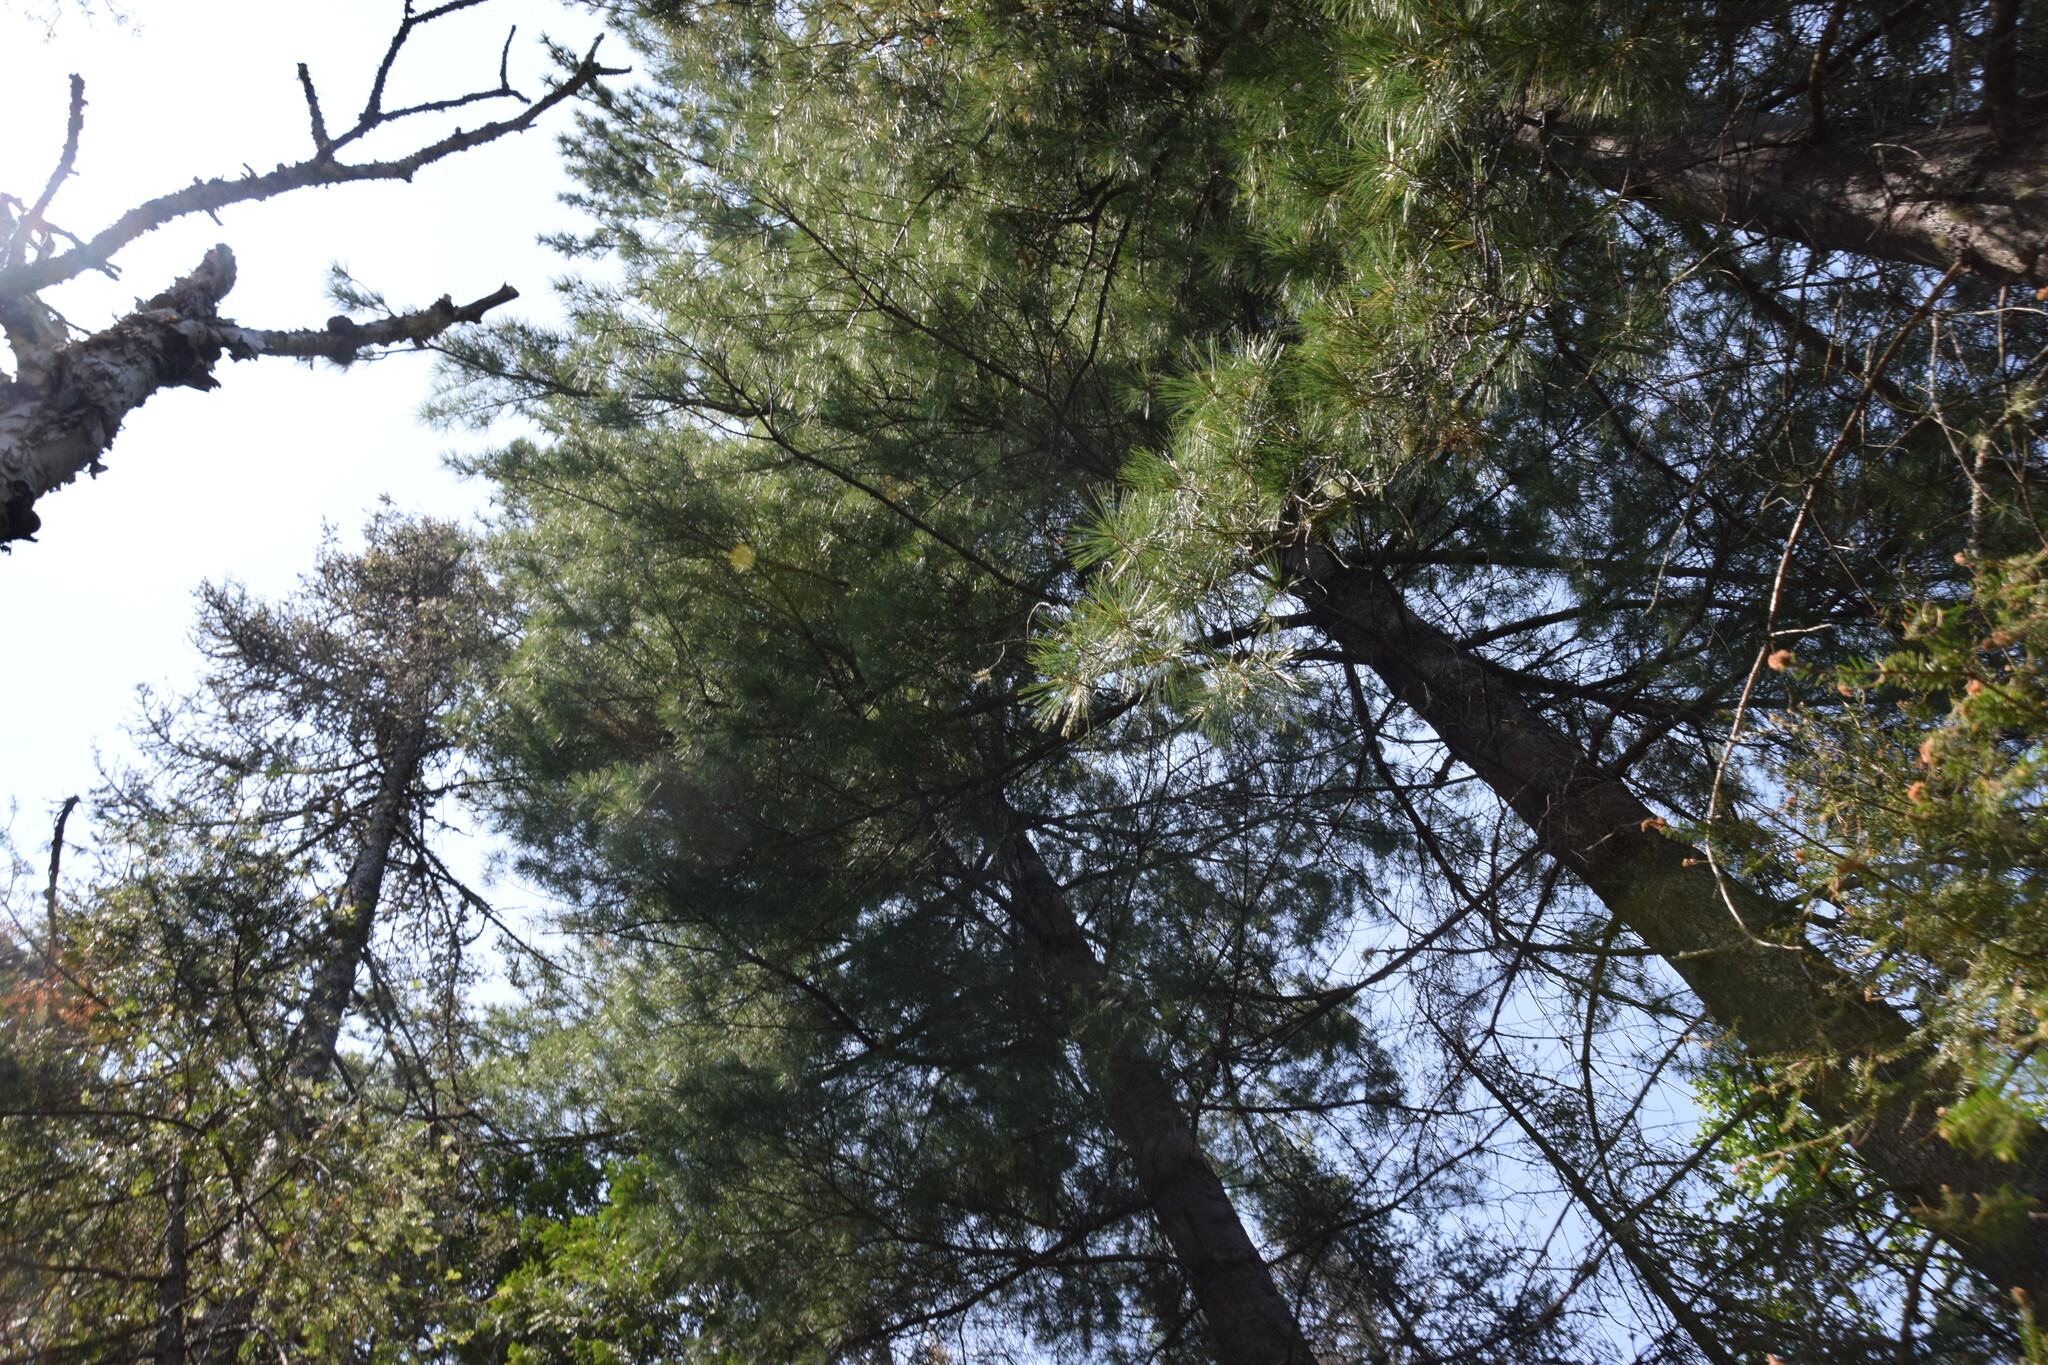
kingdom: Plantae
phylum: Tracheophyta
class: Pinopsida
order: Pinales
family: Pinaceae
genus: Pinus
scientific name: Pinus strobus
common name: Weymouth pine
